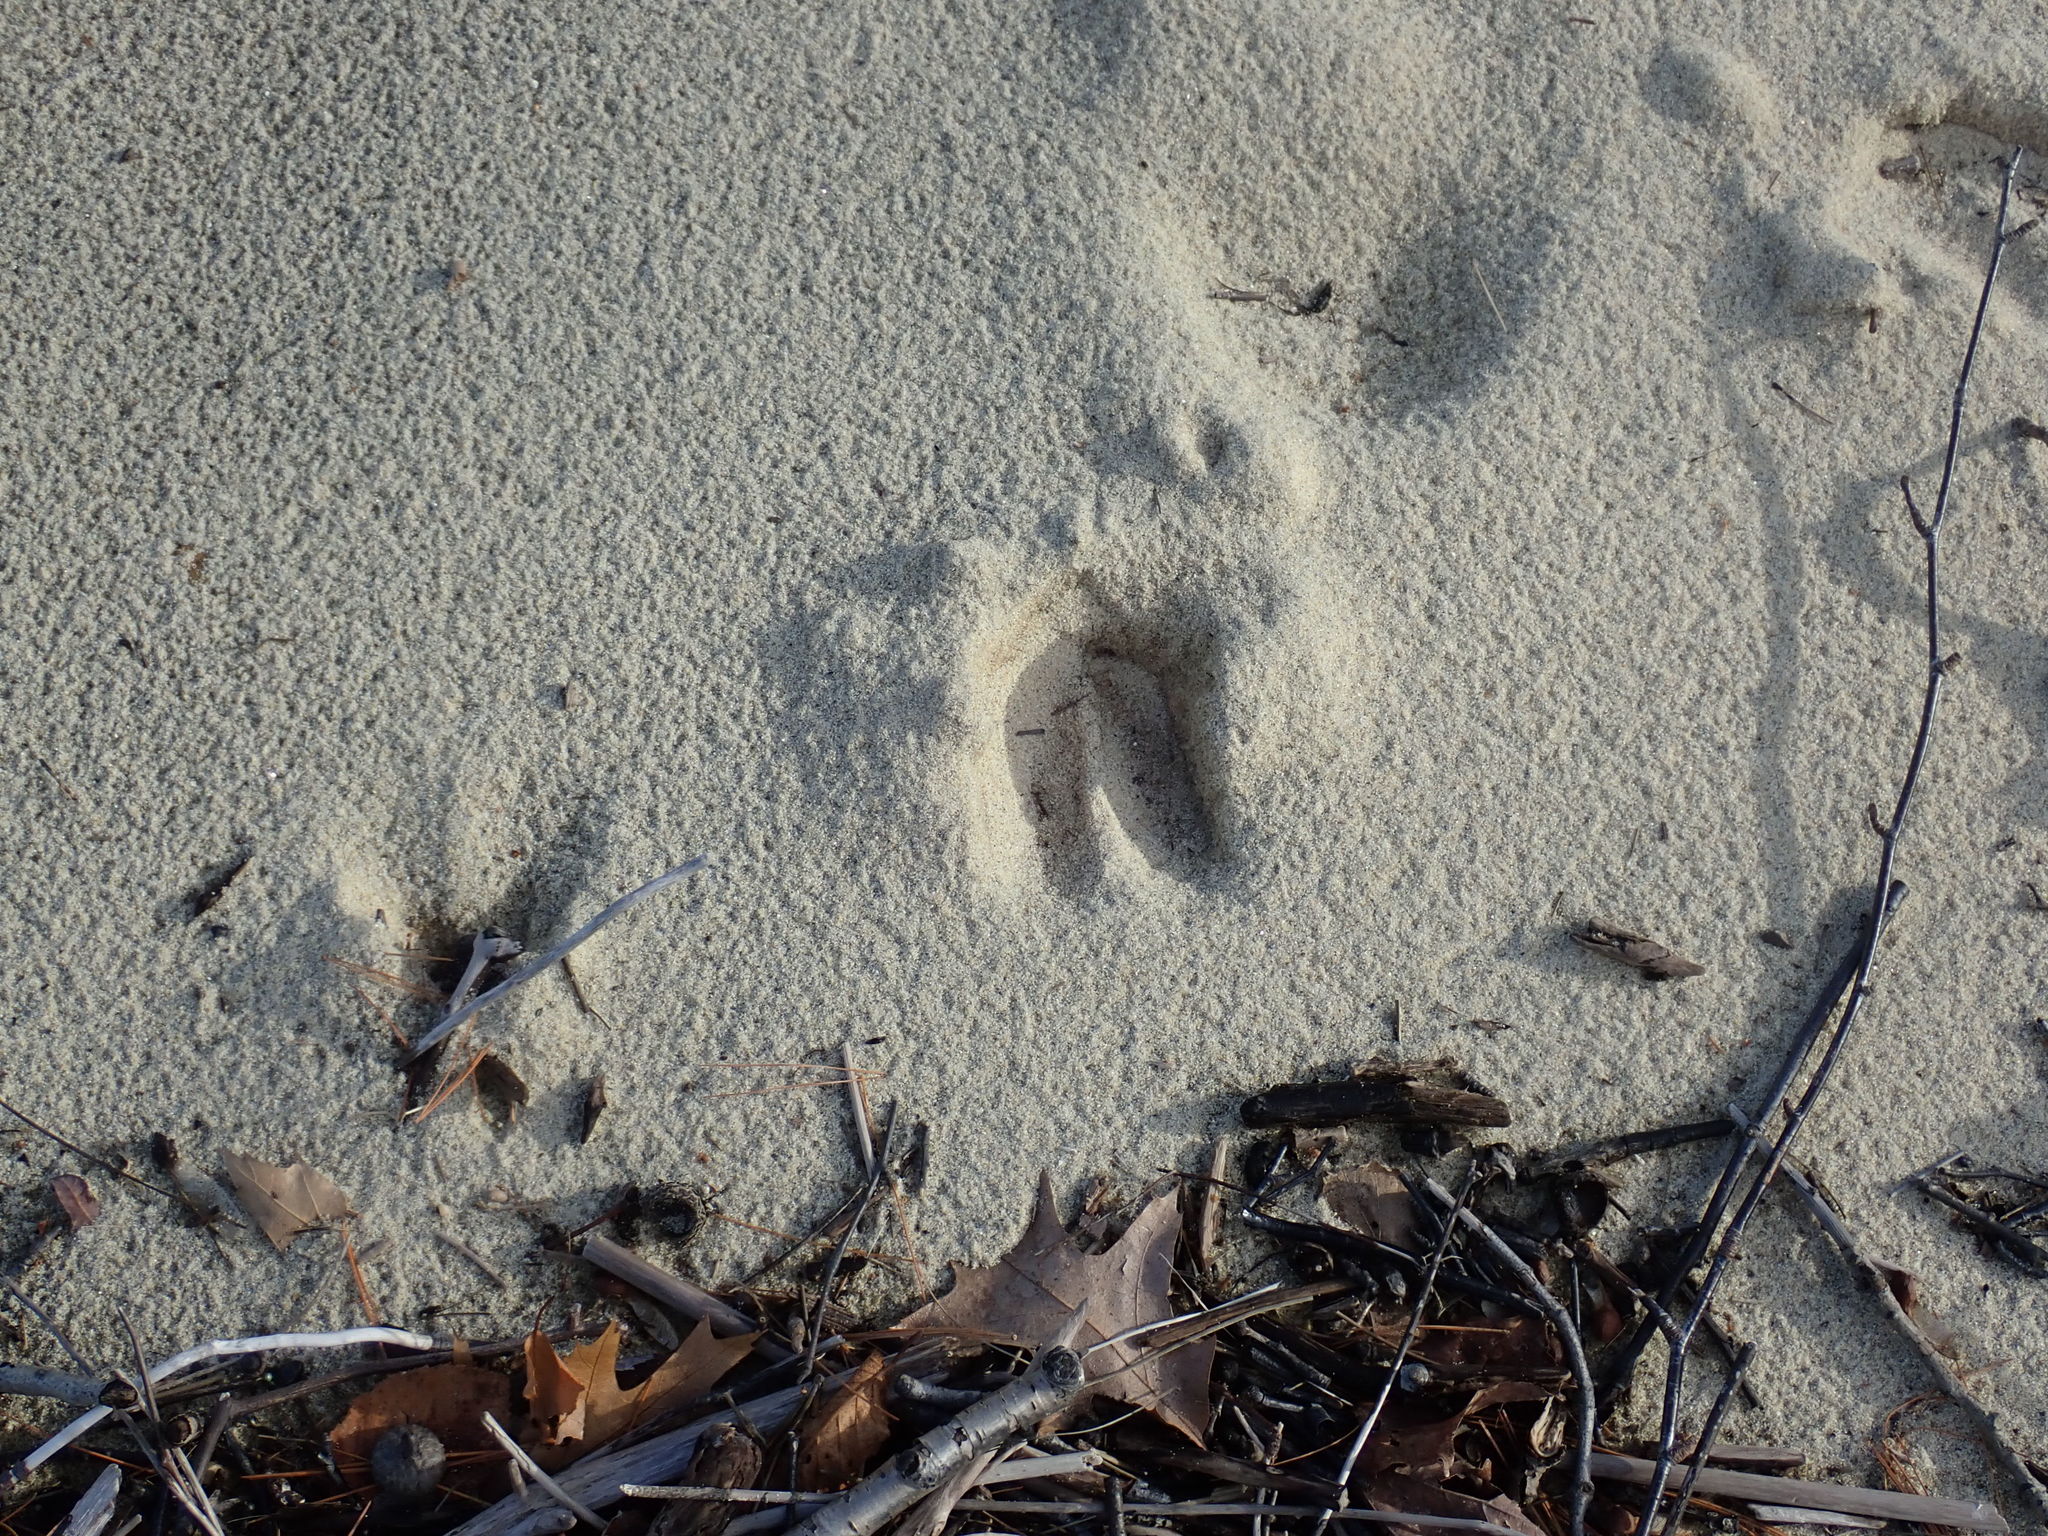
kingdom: Animalia
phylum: Chordata
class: Mammalia
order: Artiodactyla
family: Cervidae
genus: Odocoileus
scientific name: Odocoileus virginianus
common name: White-tailed deer
